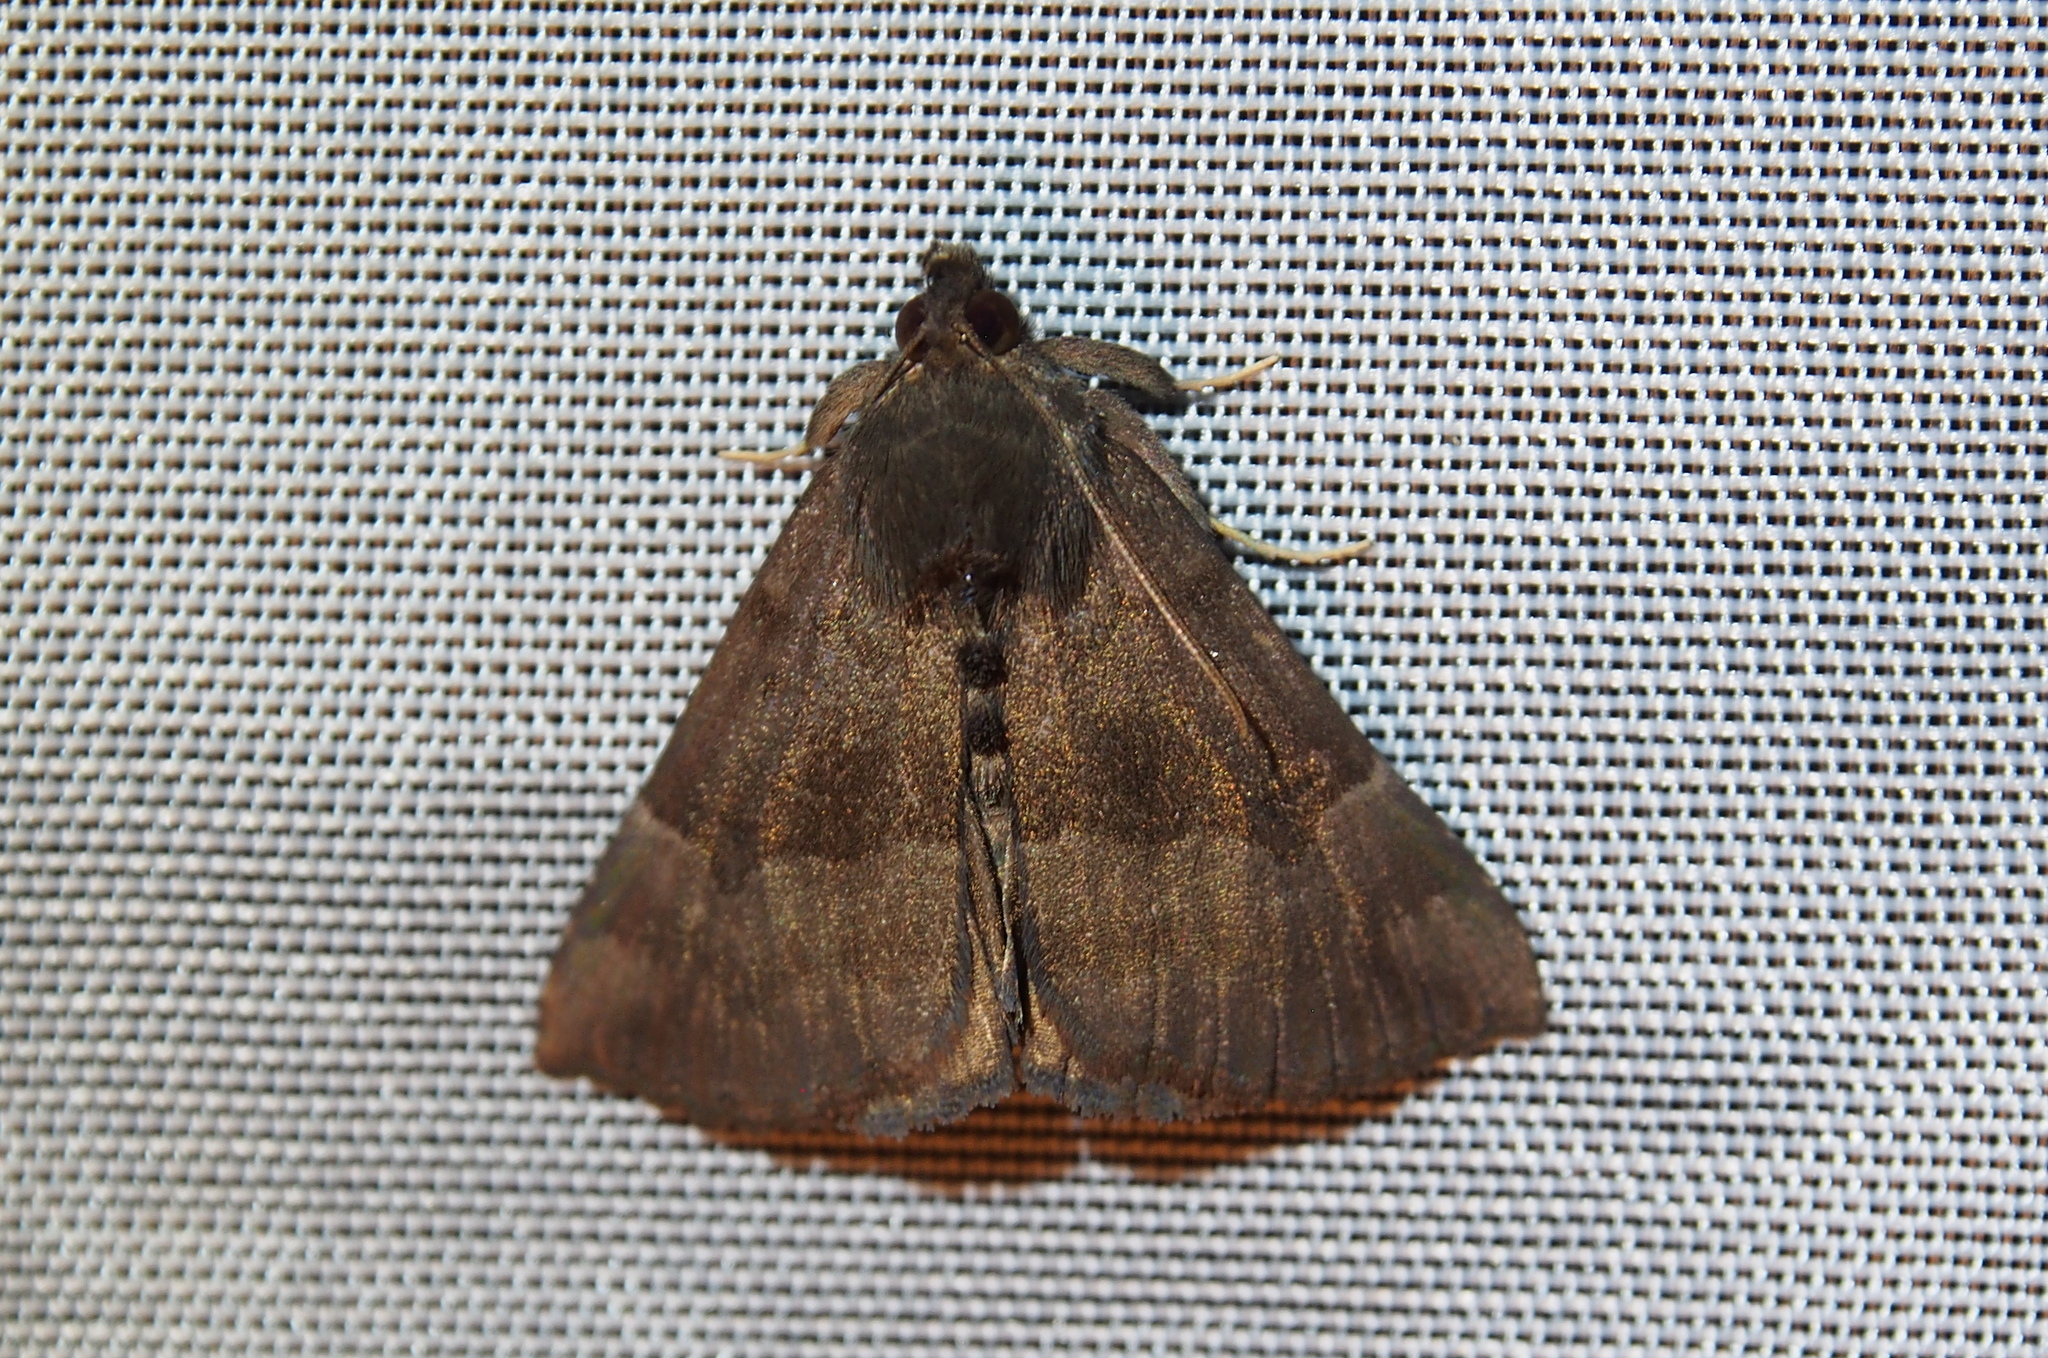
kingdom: Animalia
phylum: Arthropoda
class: Insecta
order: Lepidoptera
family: Erebidae
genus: Hypena
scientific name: Hypena madefactalis
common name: Gray-edged snout
